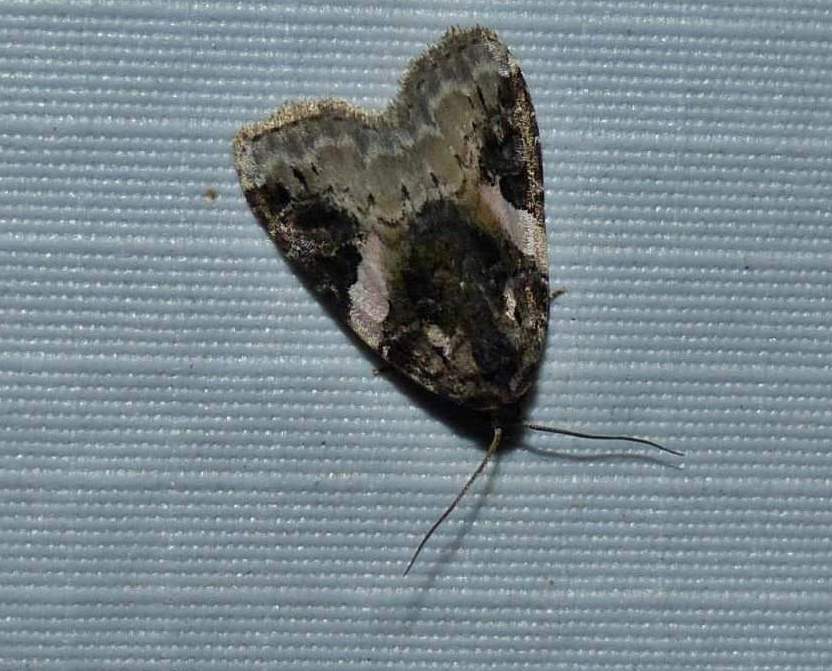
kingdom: Animalia
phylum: Arthropoda
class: Insecta
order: Lepidoptera
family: Noctuidae
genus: Pseudeustrotia
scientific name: Pseudeustrotia carneola
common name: Pink-barred lithacodia moth
